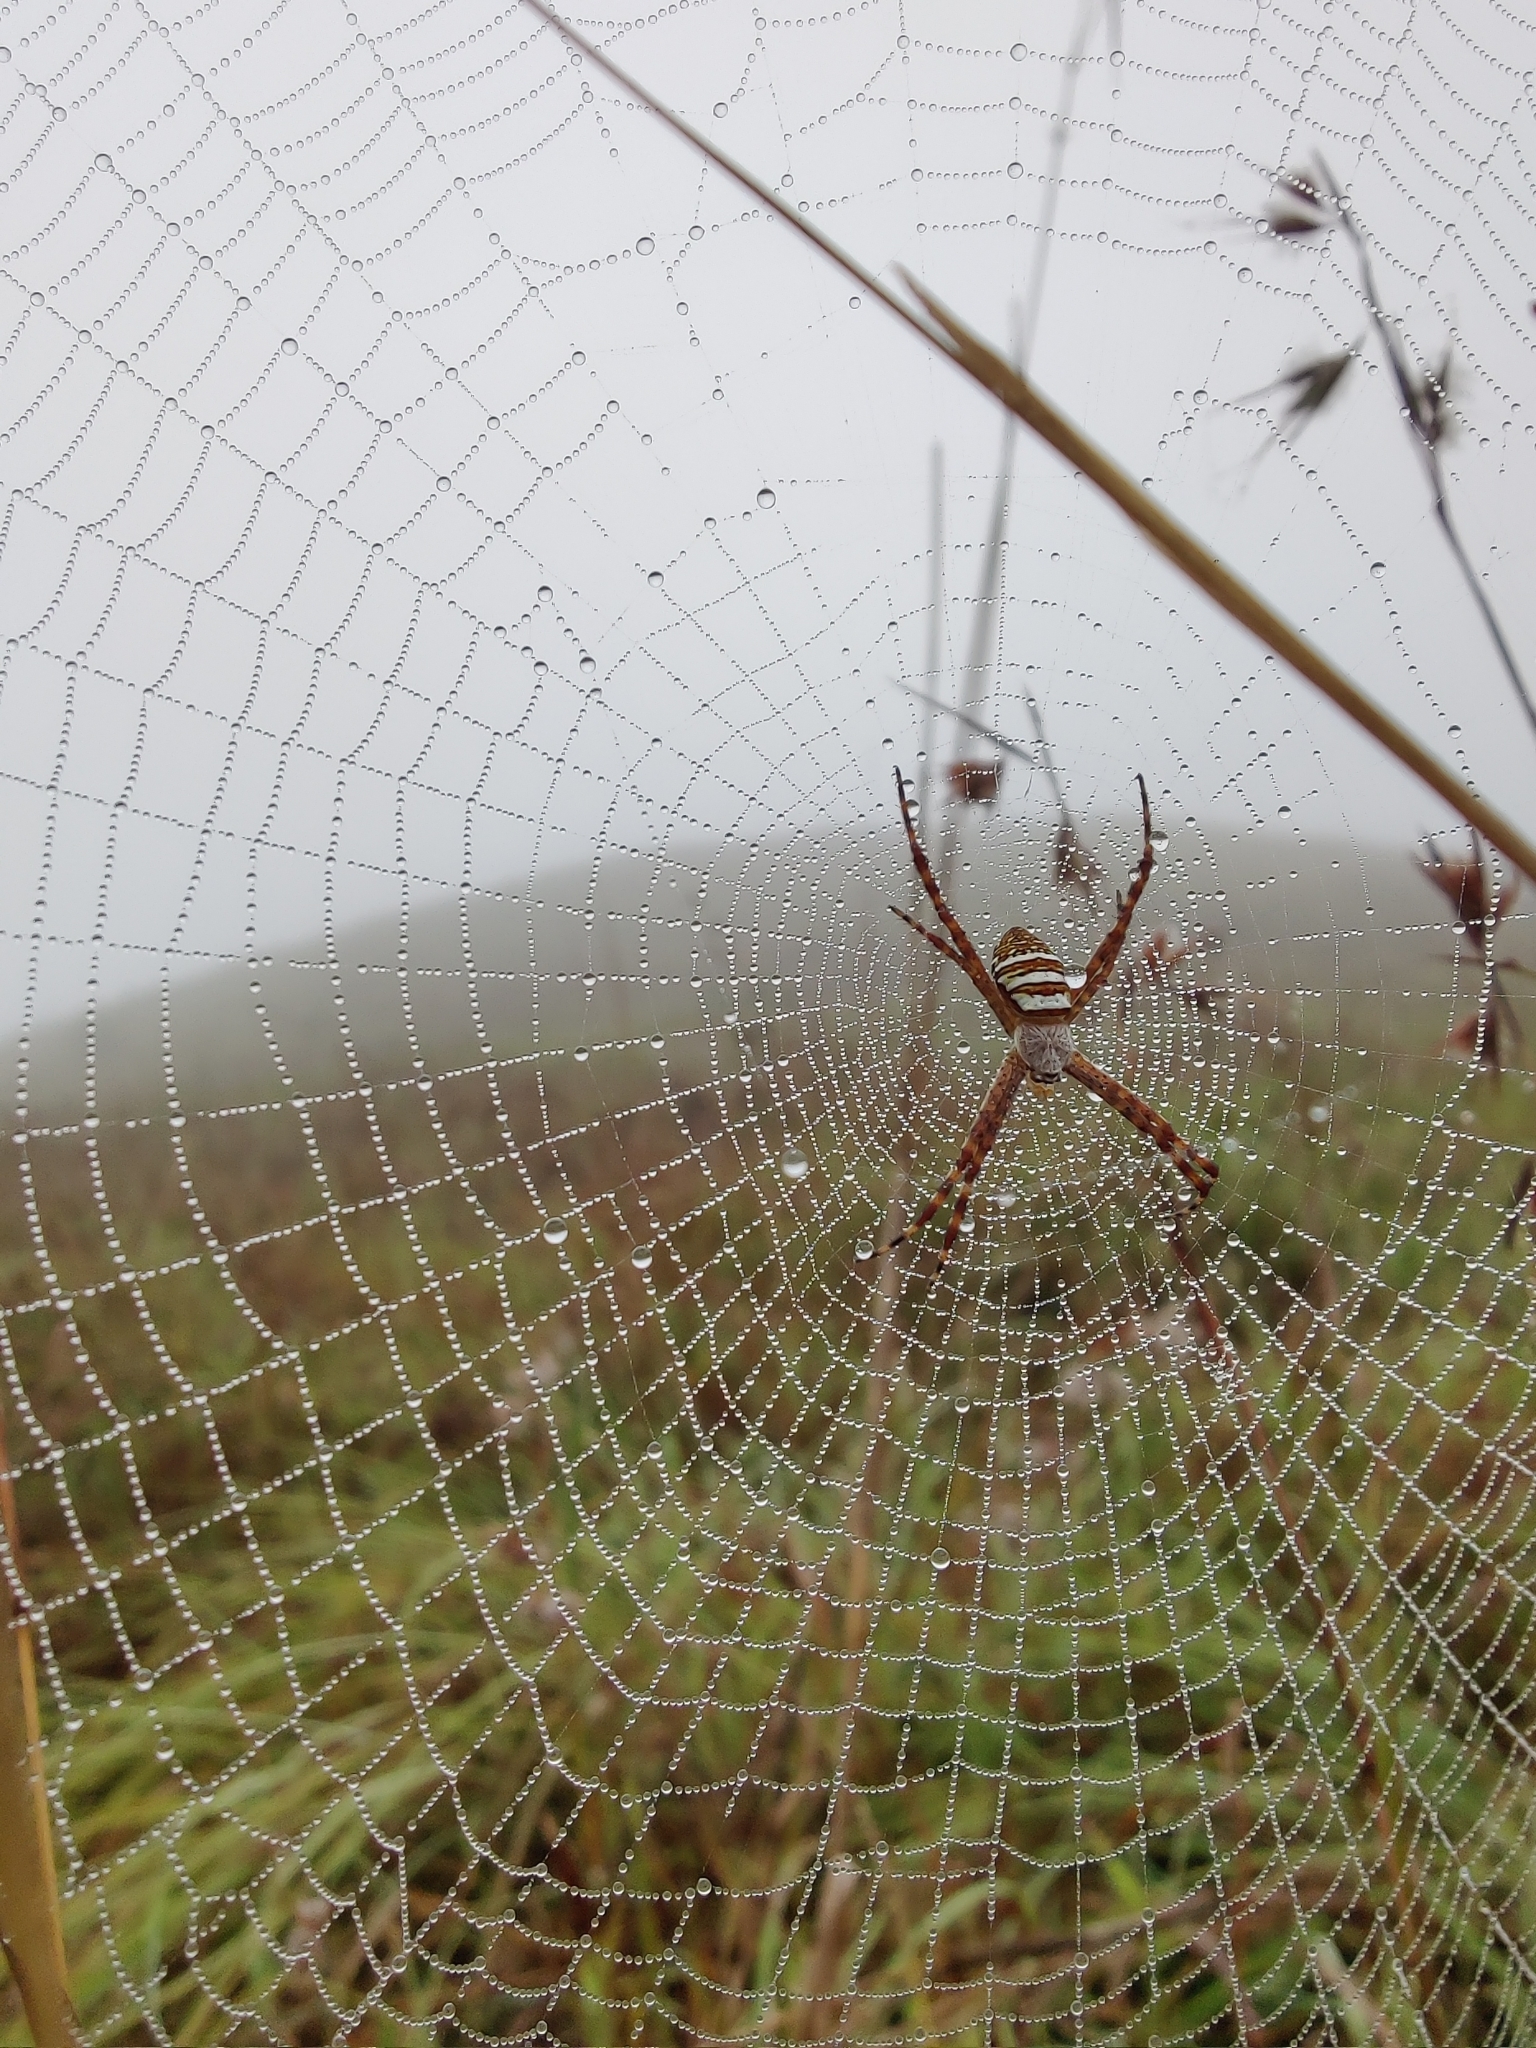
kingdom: Animalia
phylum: Arthropoda
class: Arachnida
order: Araneae
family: Araneidae
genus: Argiope
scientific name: Argiope aemula
